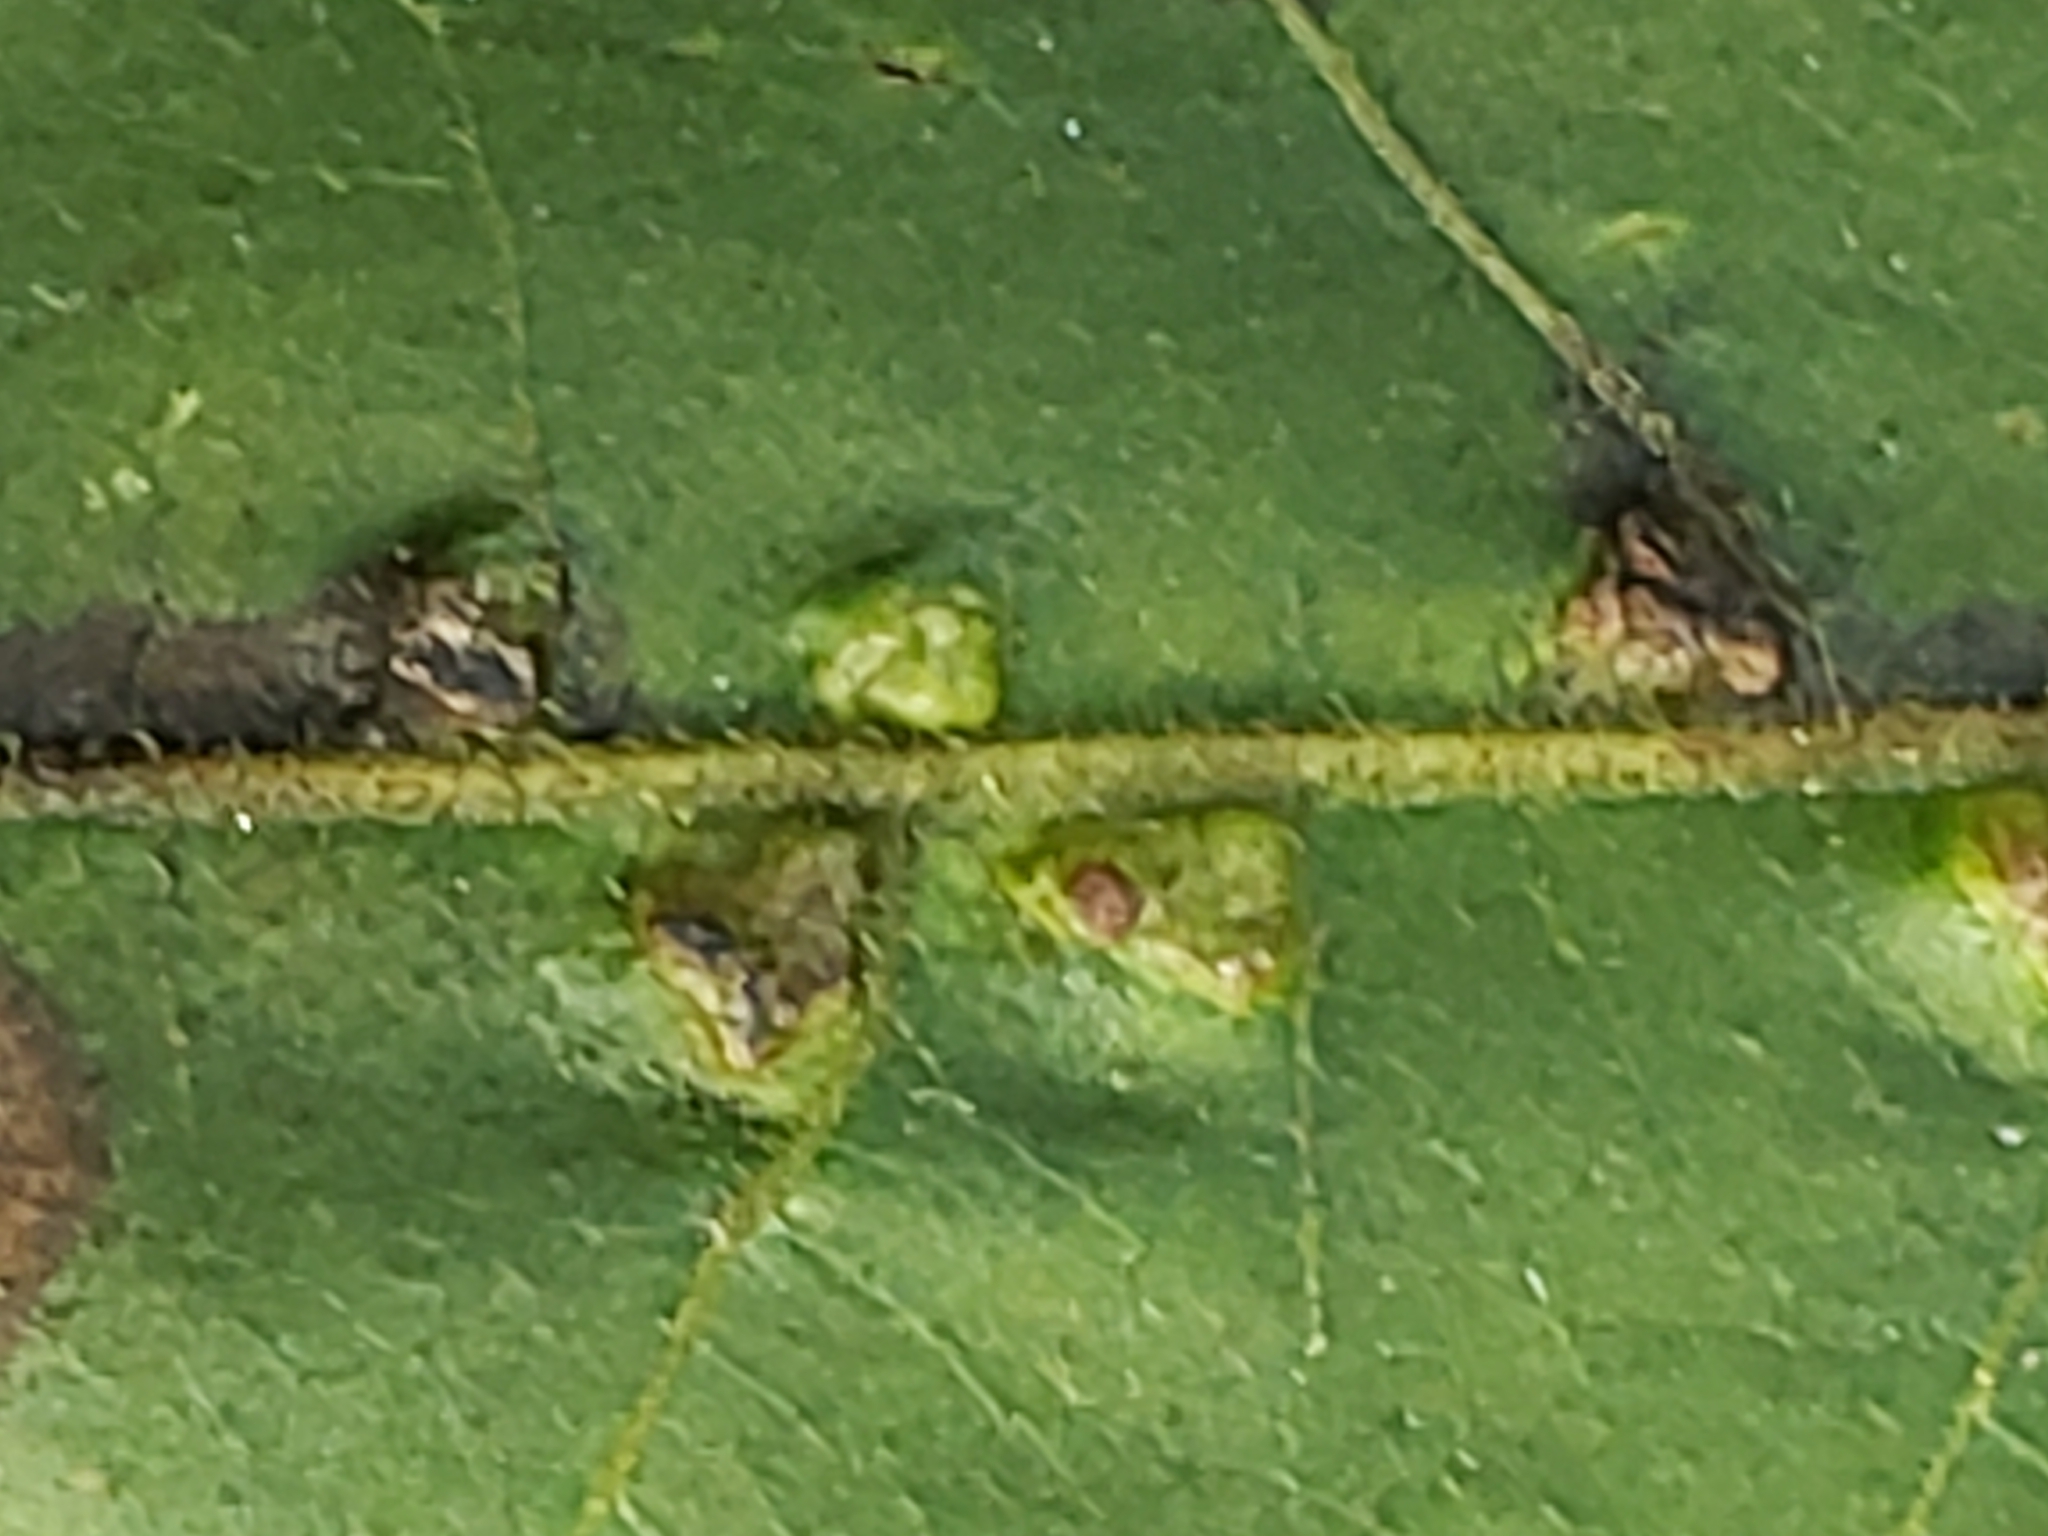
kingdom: Animalia
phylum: Arthropoda
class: Arachnida
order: Trombidiformes
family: Eriophyidae
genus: Aceria
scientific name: Aceria
